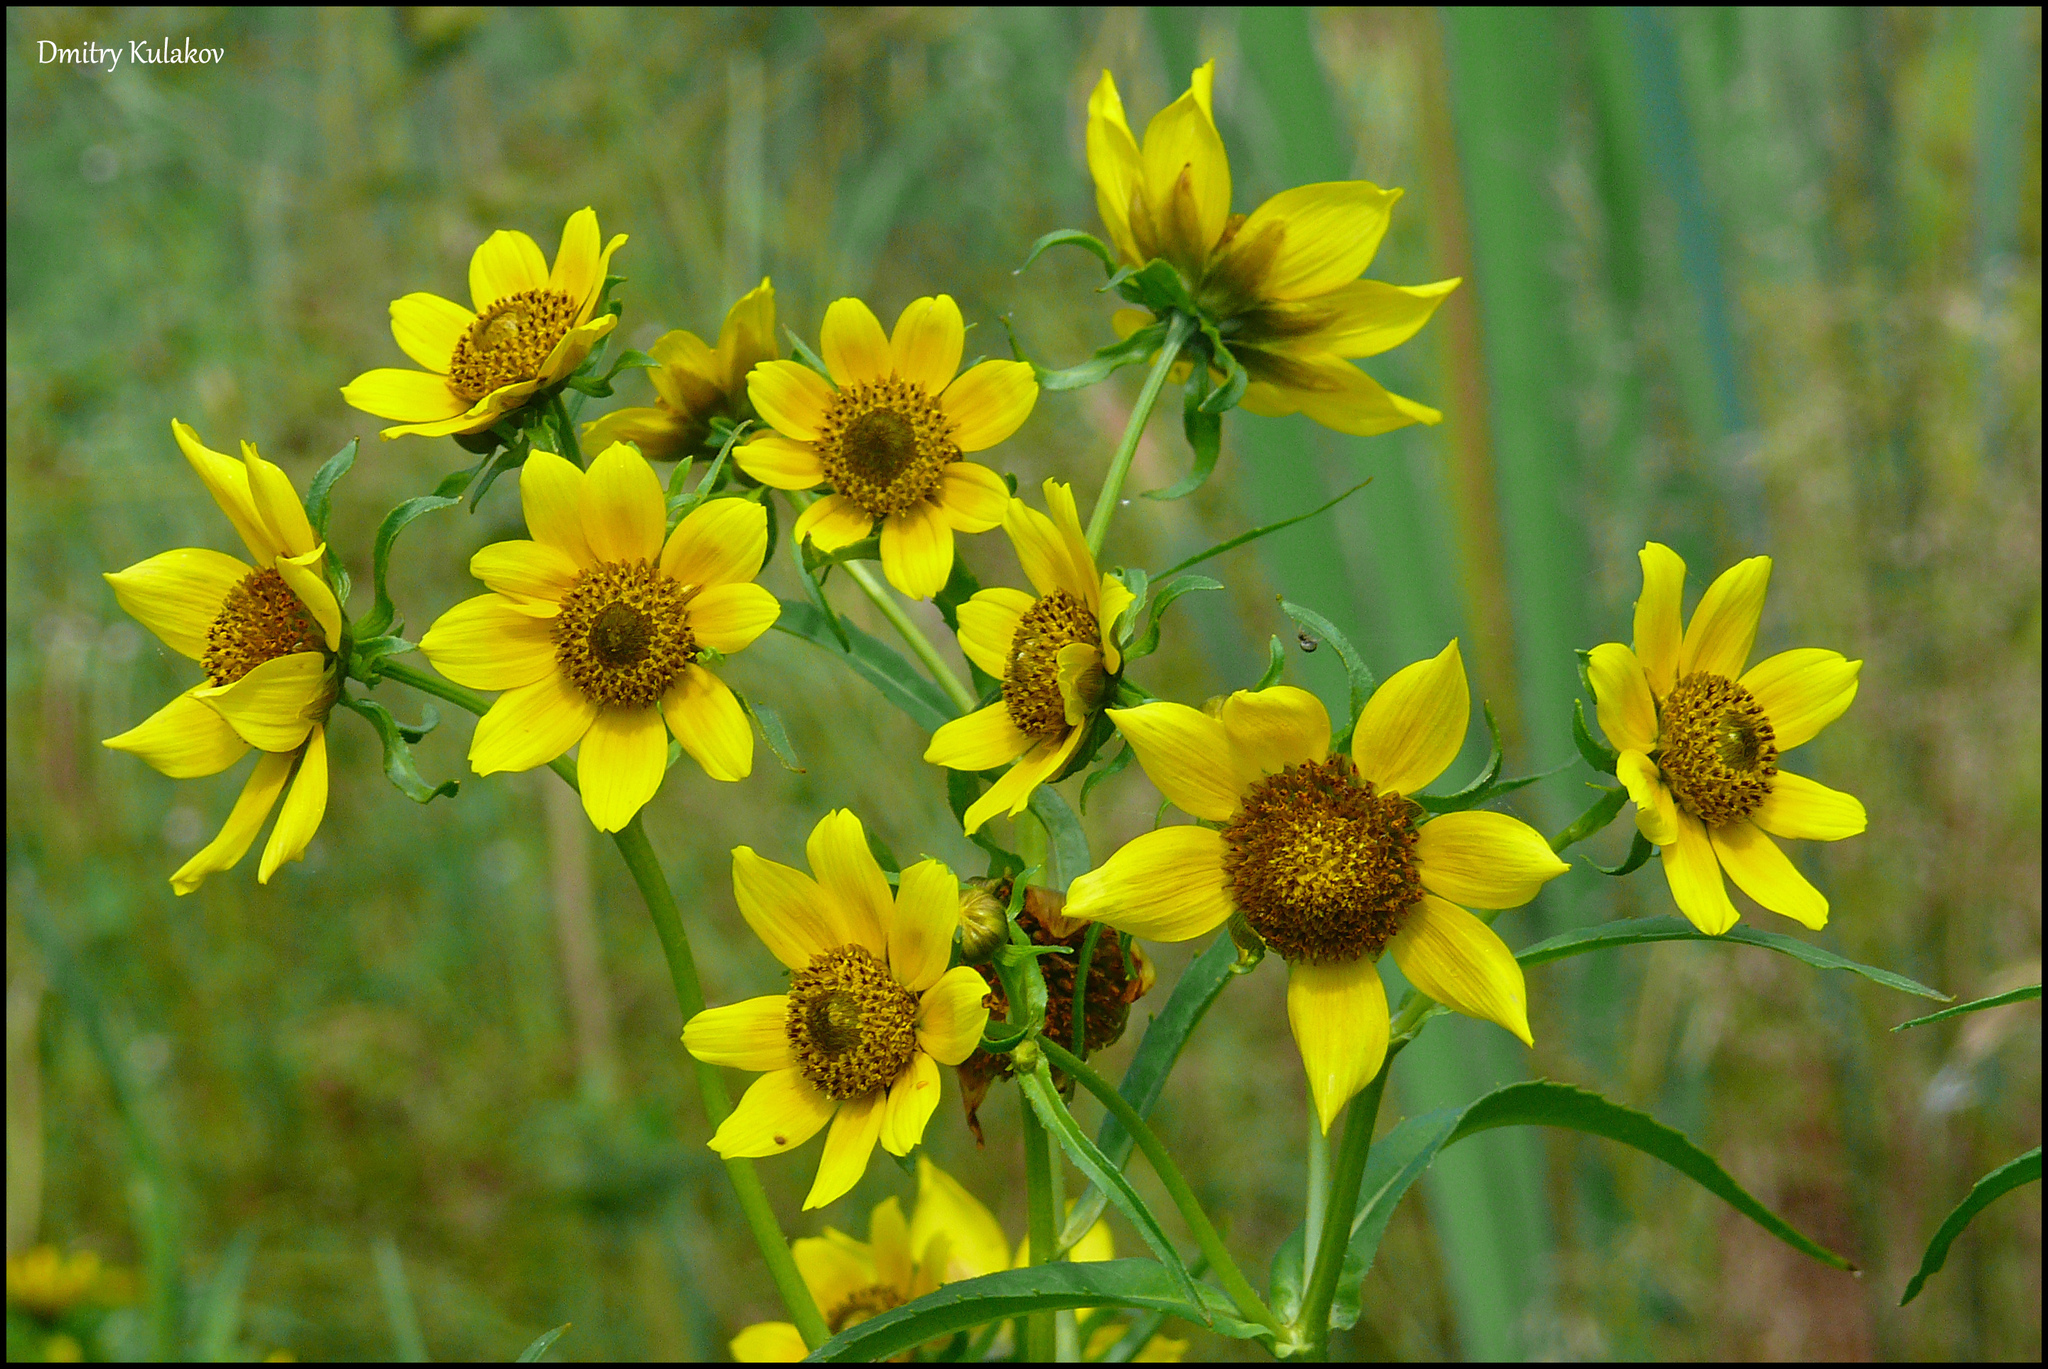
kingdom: Plantae
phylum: Tracheophyta
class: Magnoliopsida
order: Asterales
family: Asteraceae
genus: Bidens
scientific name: Bidens cernua
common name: Nodding bur-marigold
